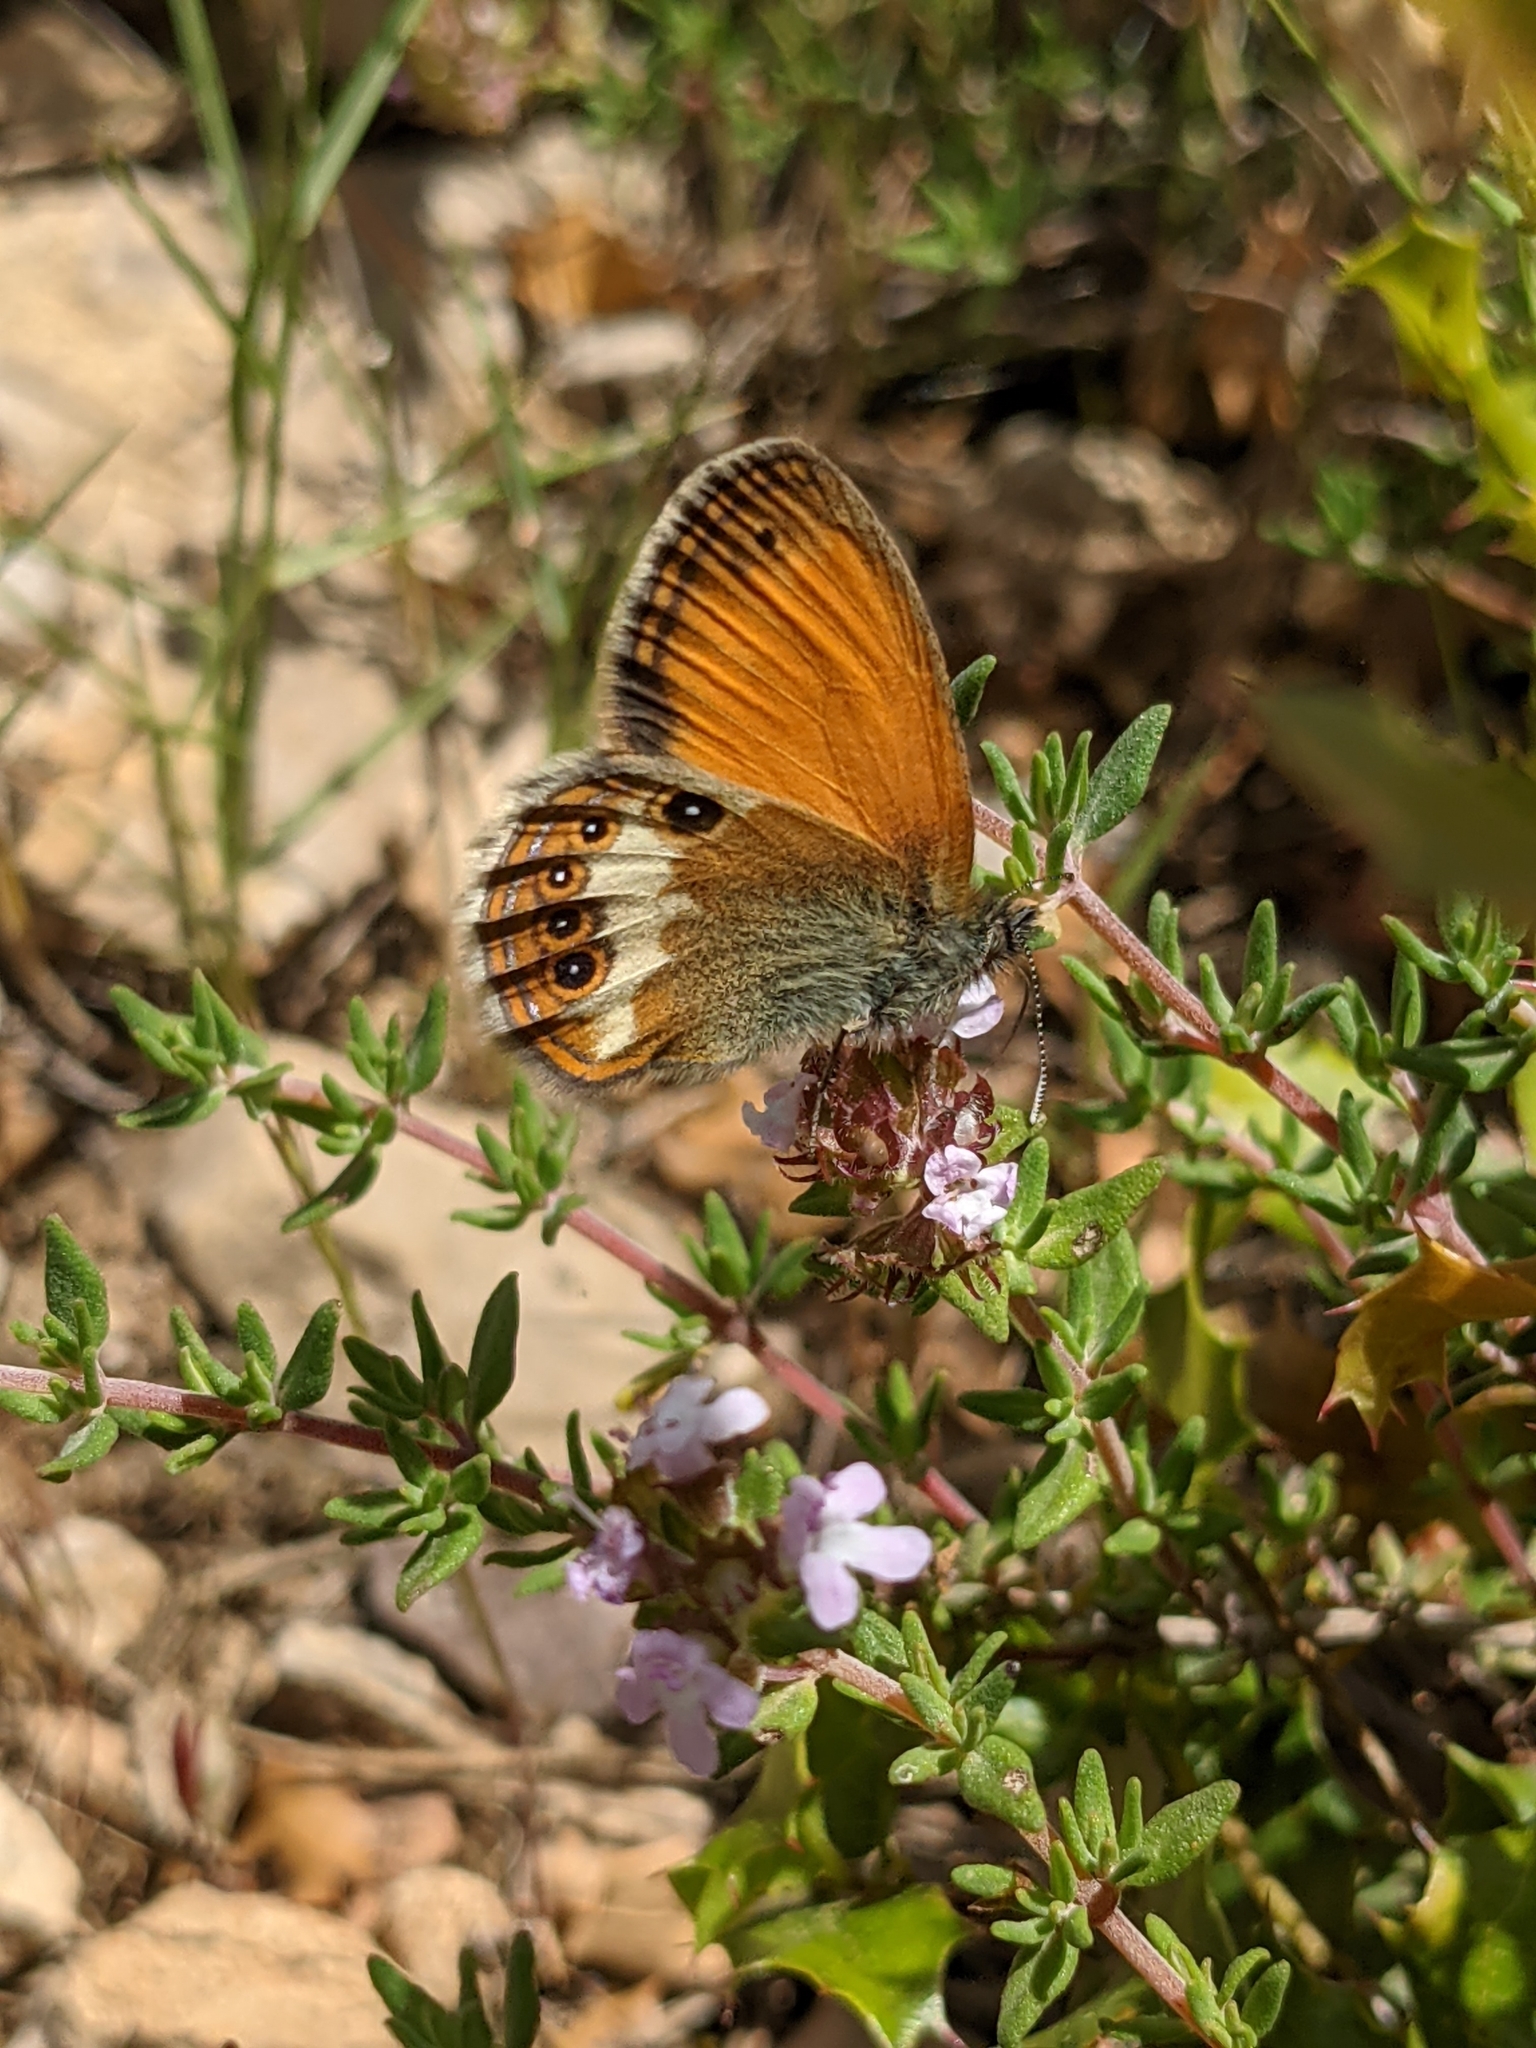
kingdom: Animalia
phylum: Arthropoda
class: Insecta
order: Lepidoptera
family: Nymphalidae
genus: Coenonympha
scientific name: Coenonympha arcania
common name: Pearly heath
